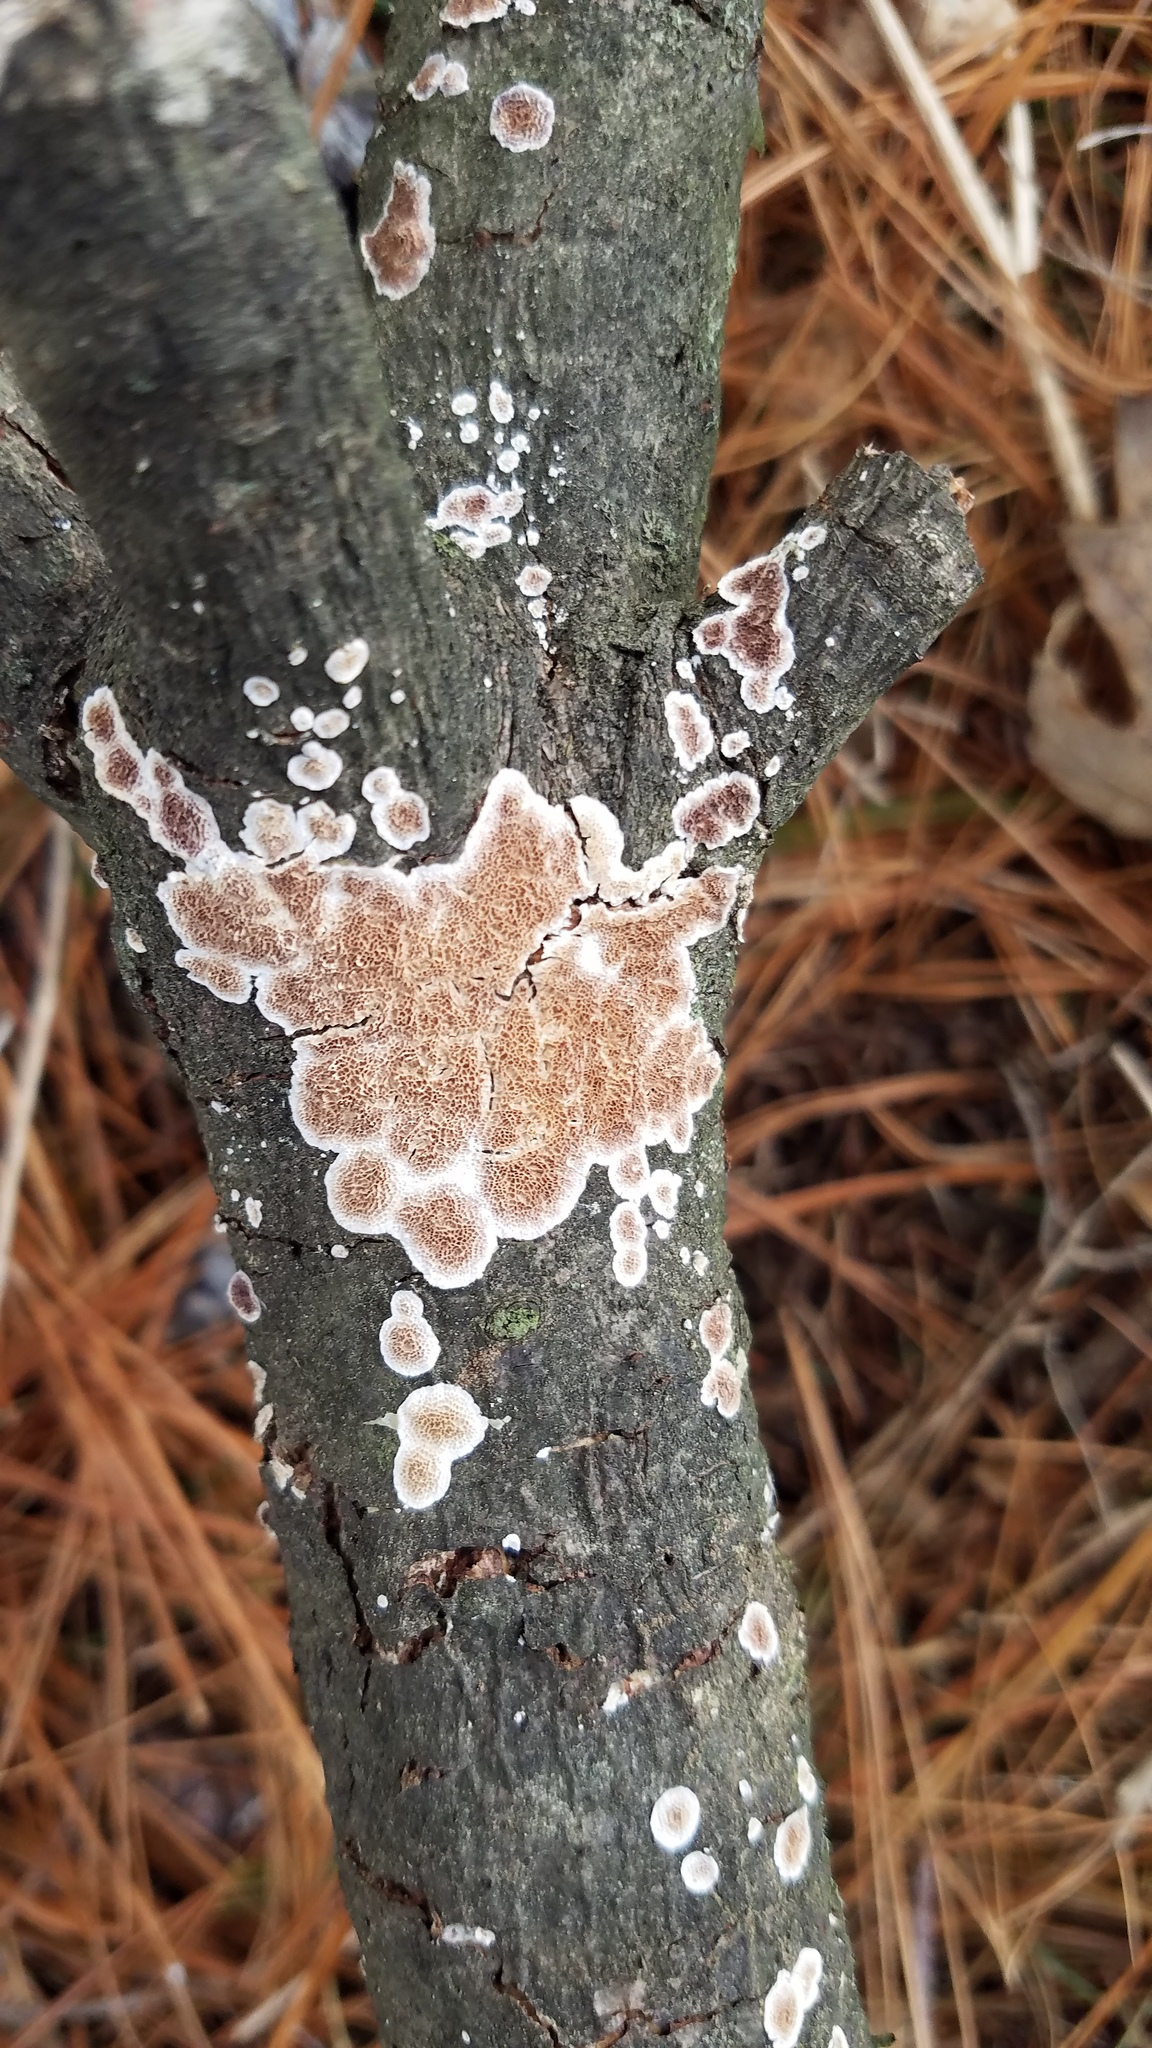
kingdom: Fungi
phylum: Basidiomycota
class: Agaricomycetes
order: Russulales
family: Peniophoraceae
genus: Peniophora
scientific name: Peniophora albobadia
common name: Giraffe spots
